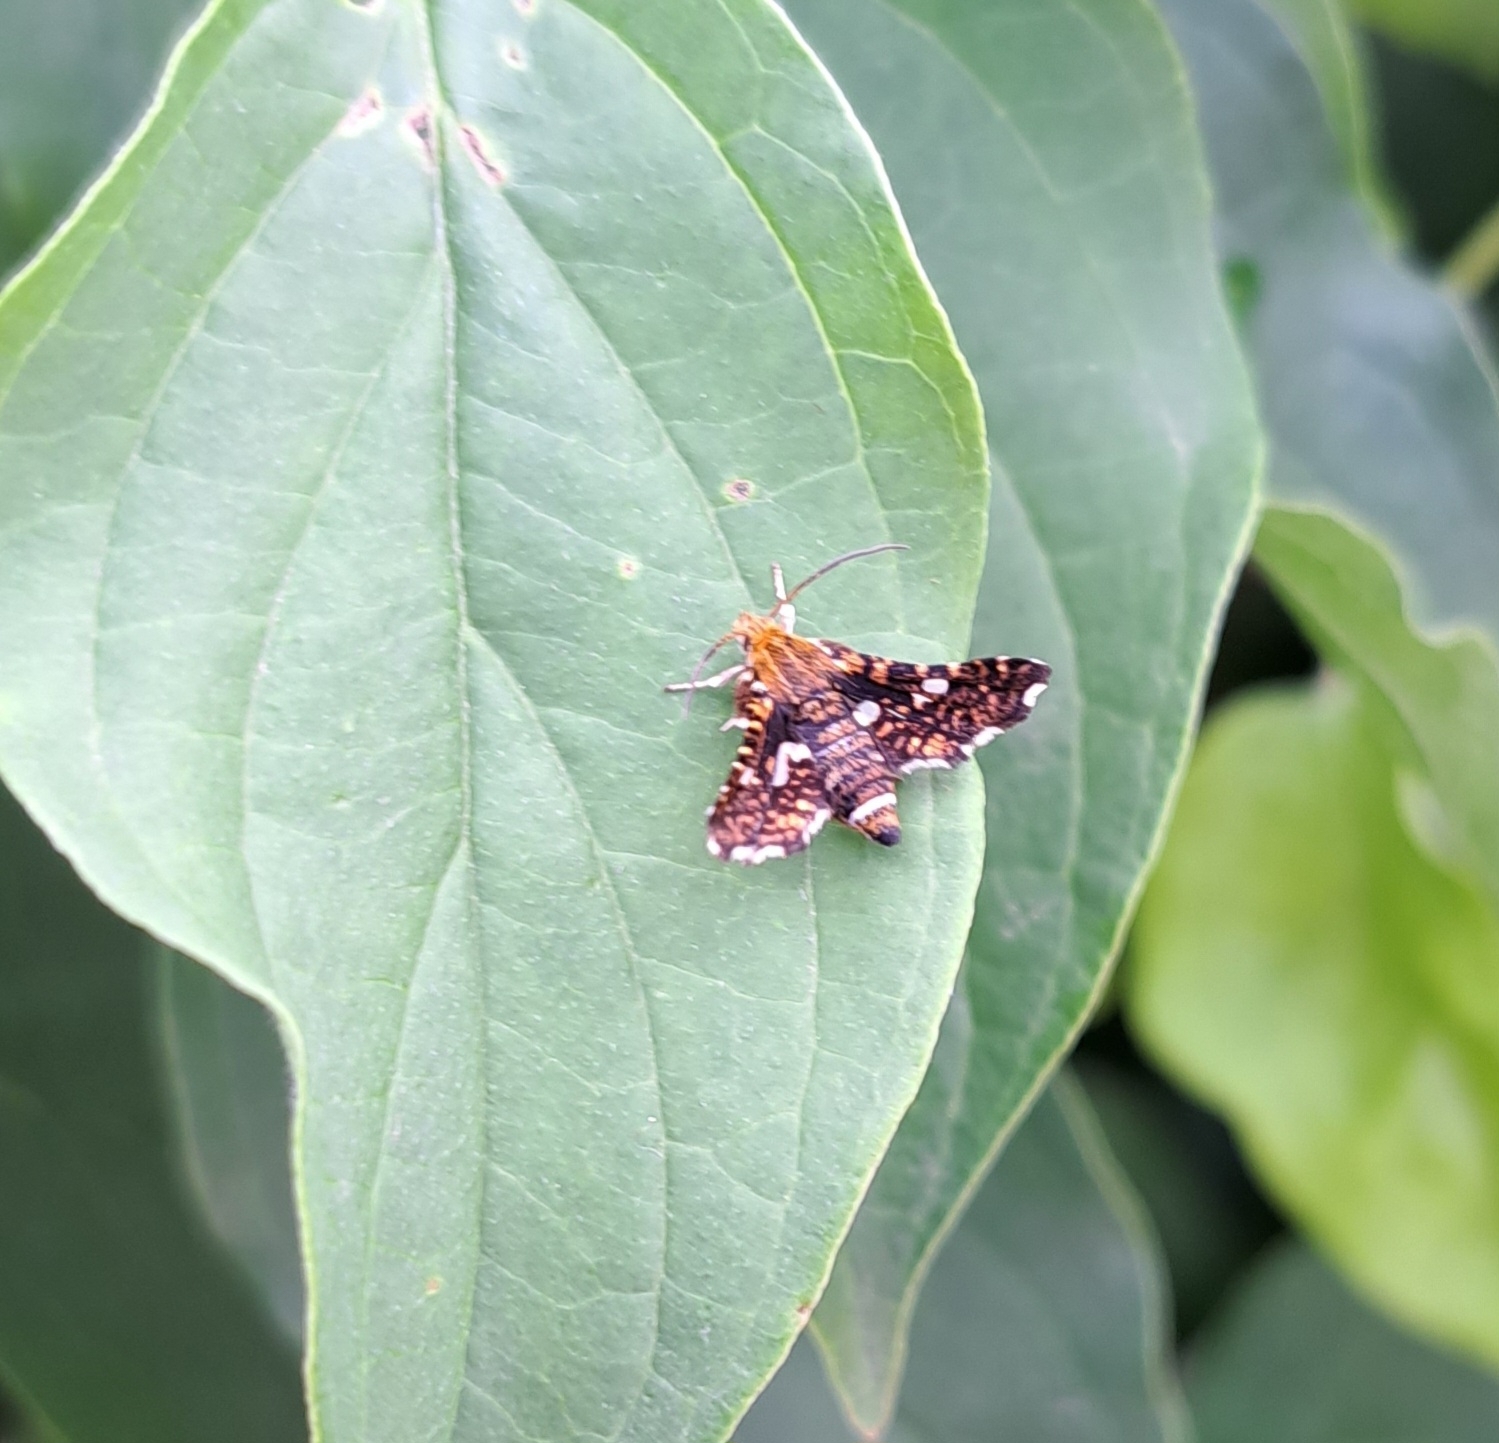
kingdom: Animalia
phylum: Arthropoda
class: Insecta
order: Lepidoptera
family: Thyrididae
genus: Thyris
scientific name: Thyris fenestrella
